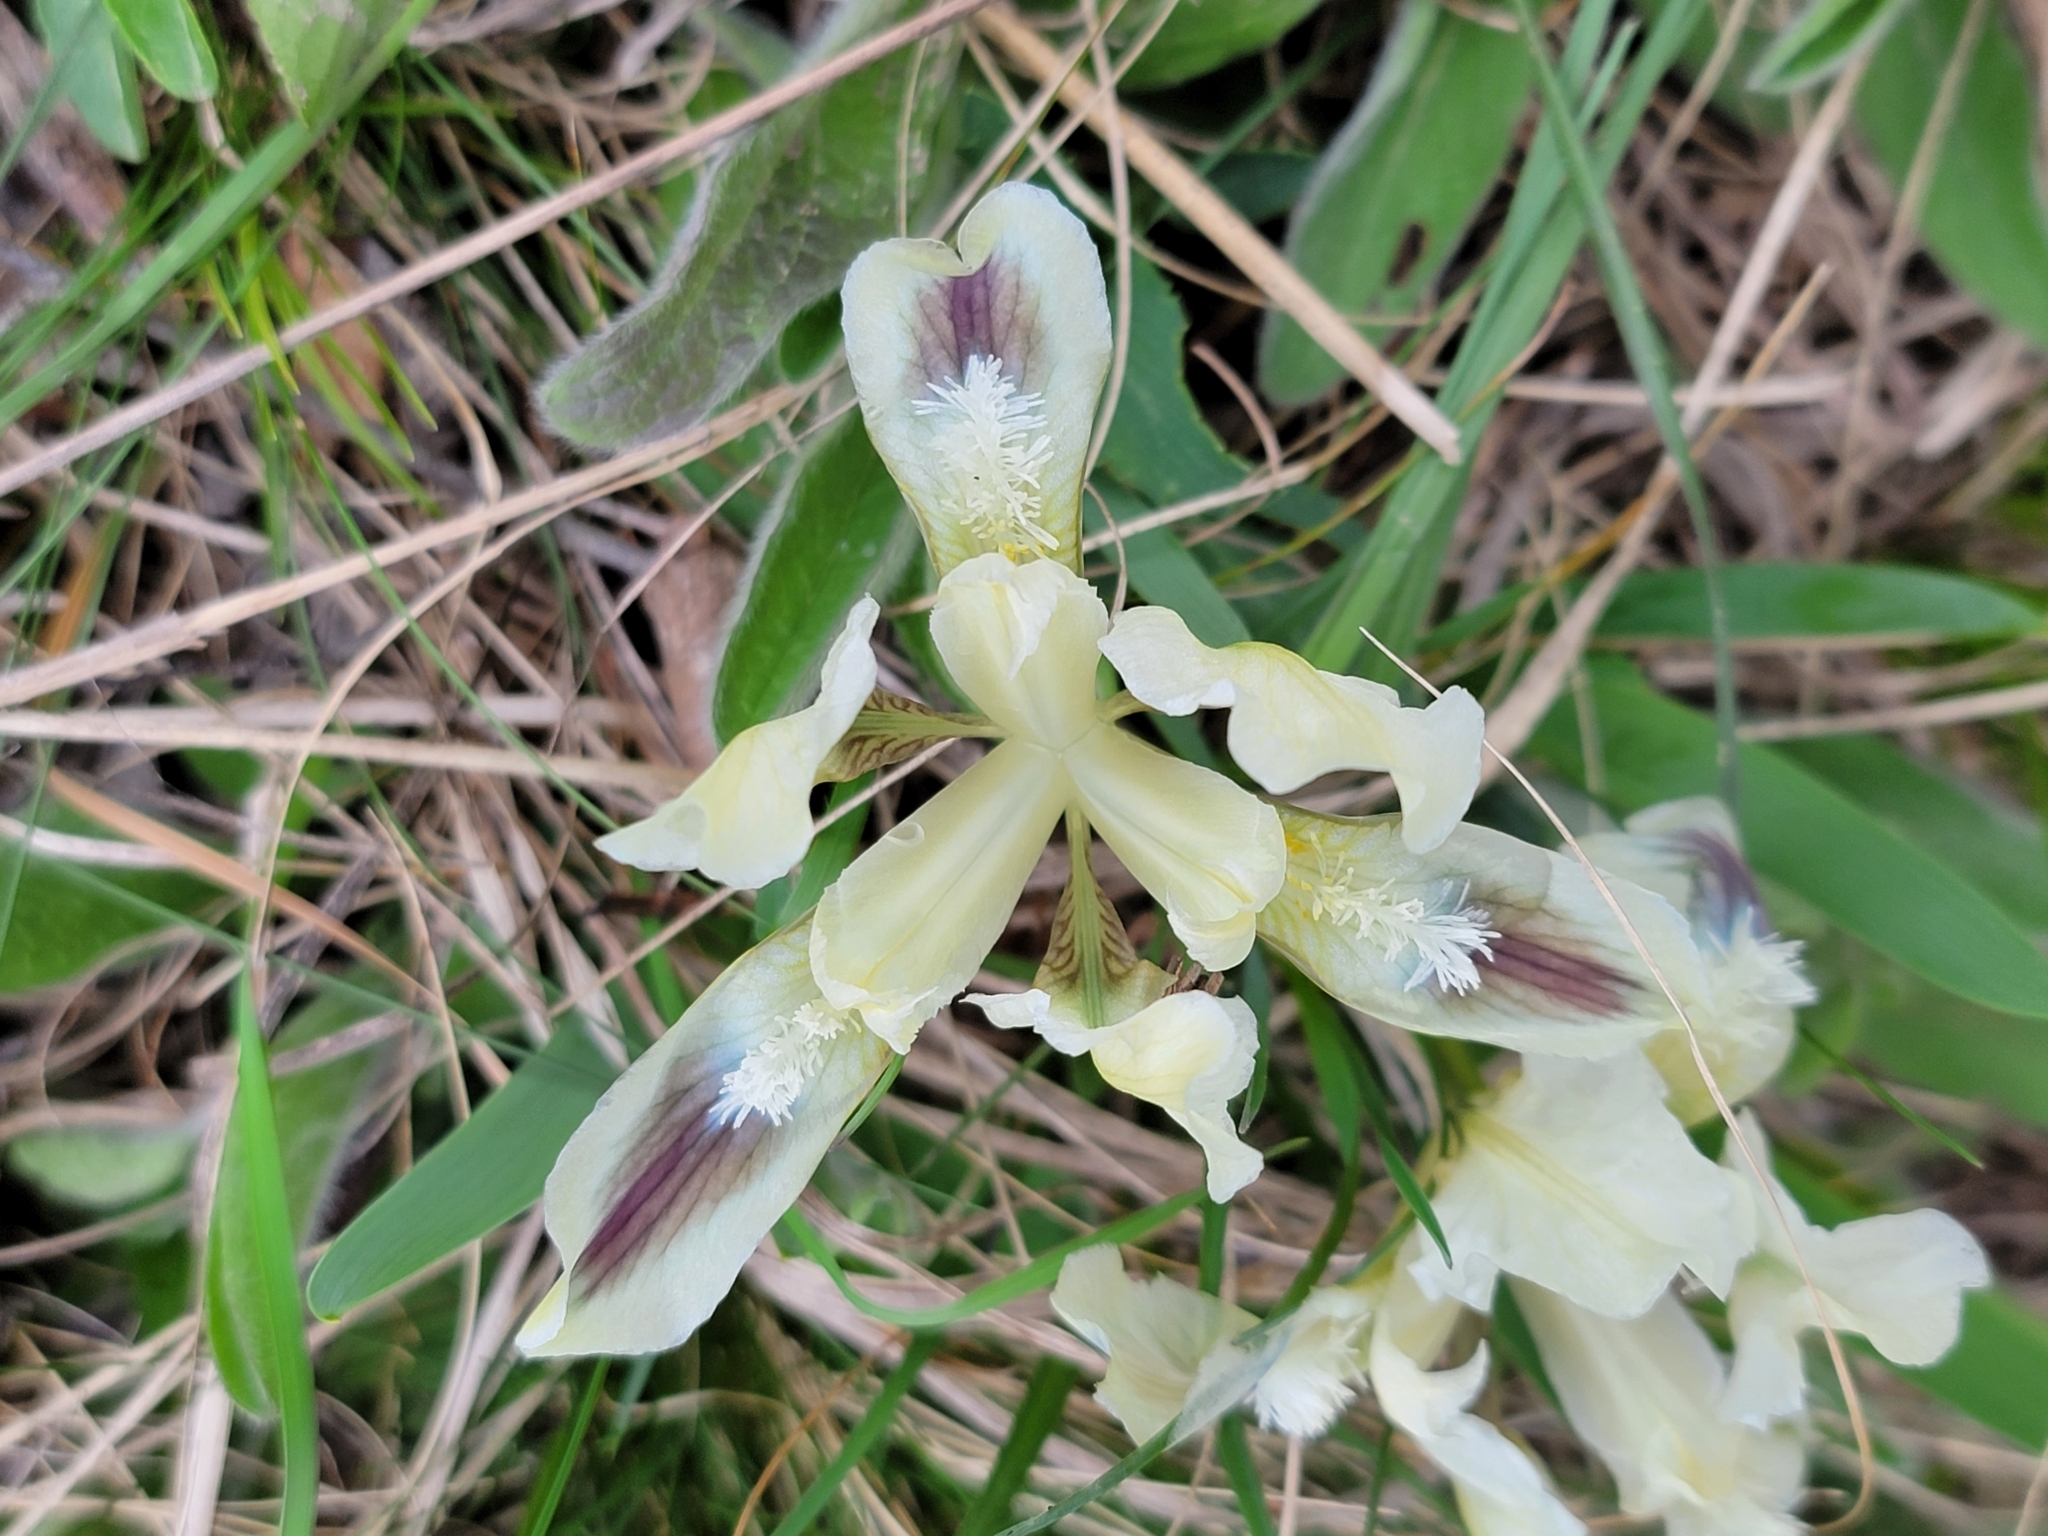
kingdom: Plantae
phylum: Tracheophyta
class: Liliopsida
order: Asparagales
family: Iridaceae
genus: Iris
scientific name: Iris pumila
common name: Dwarf iris
